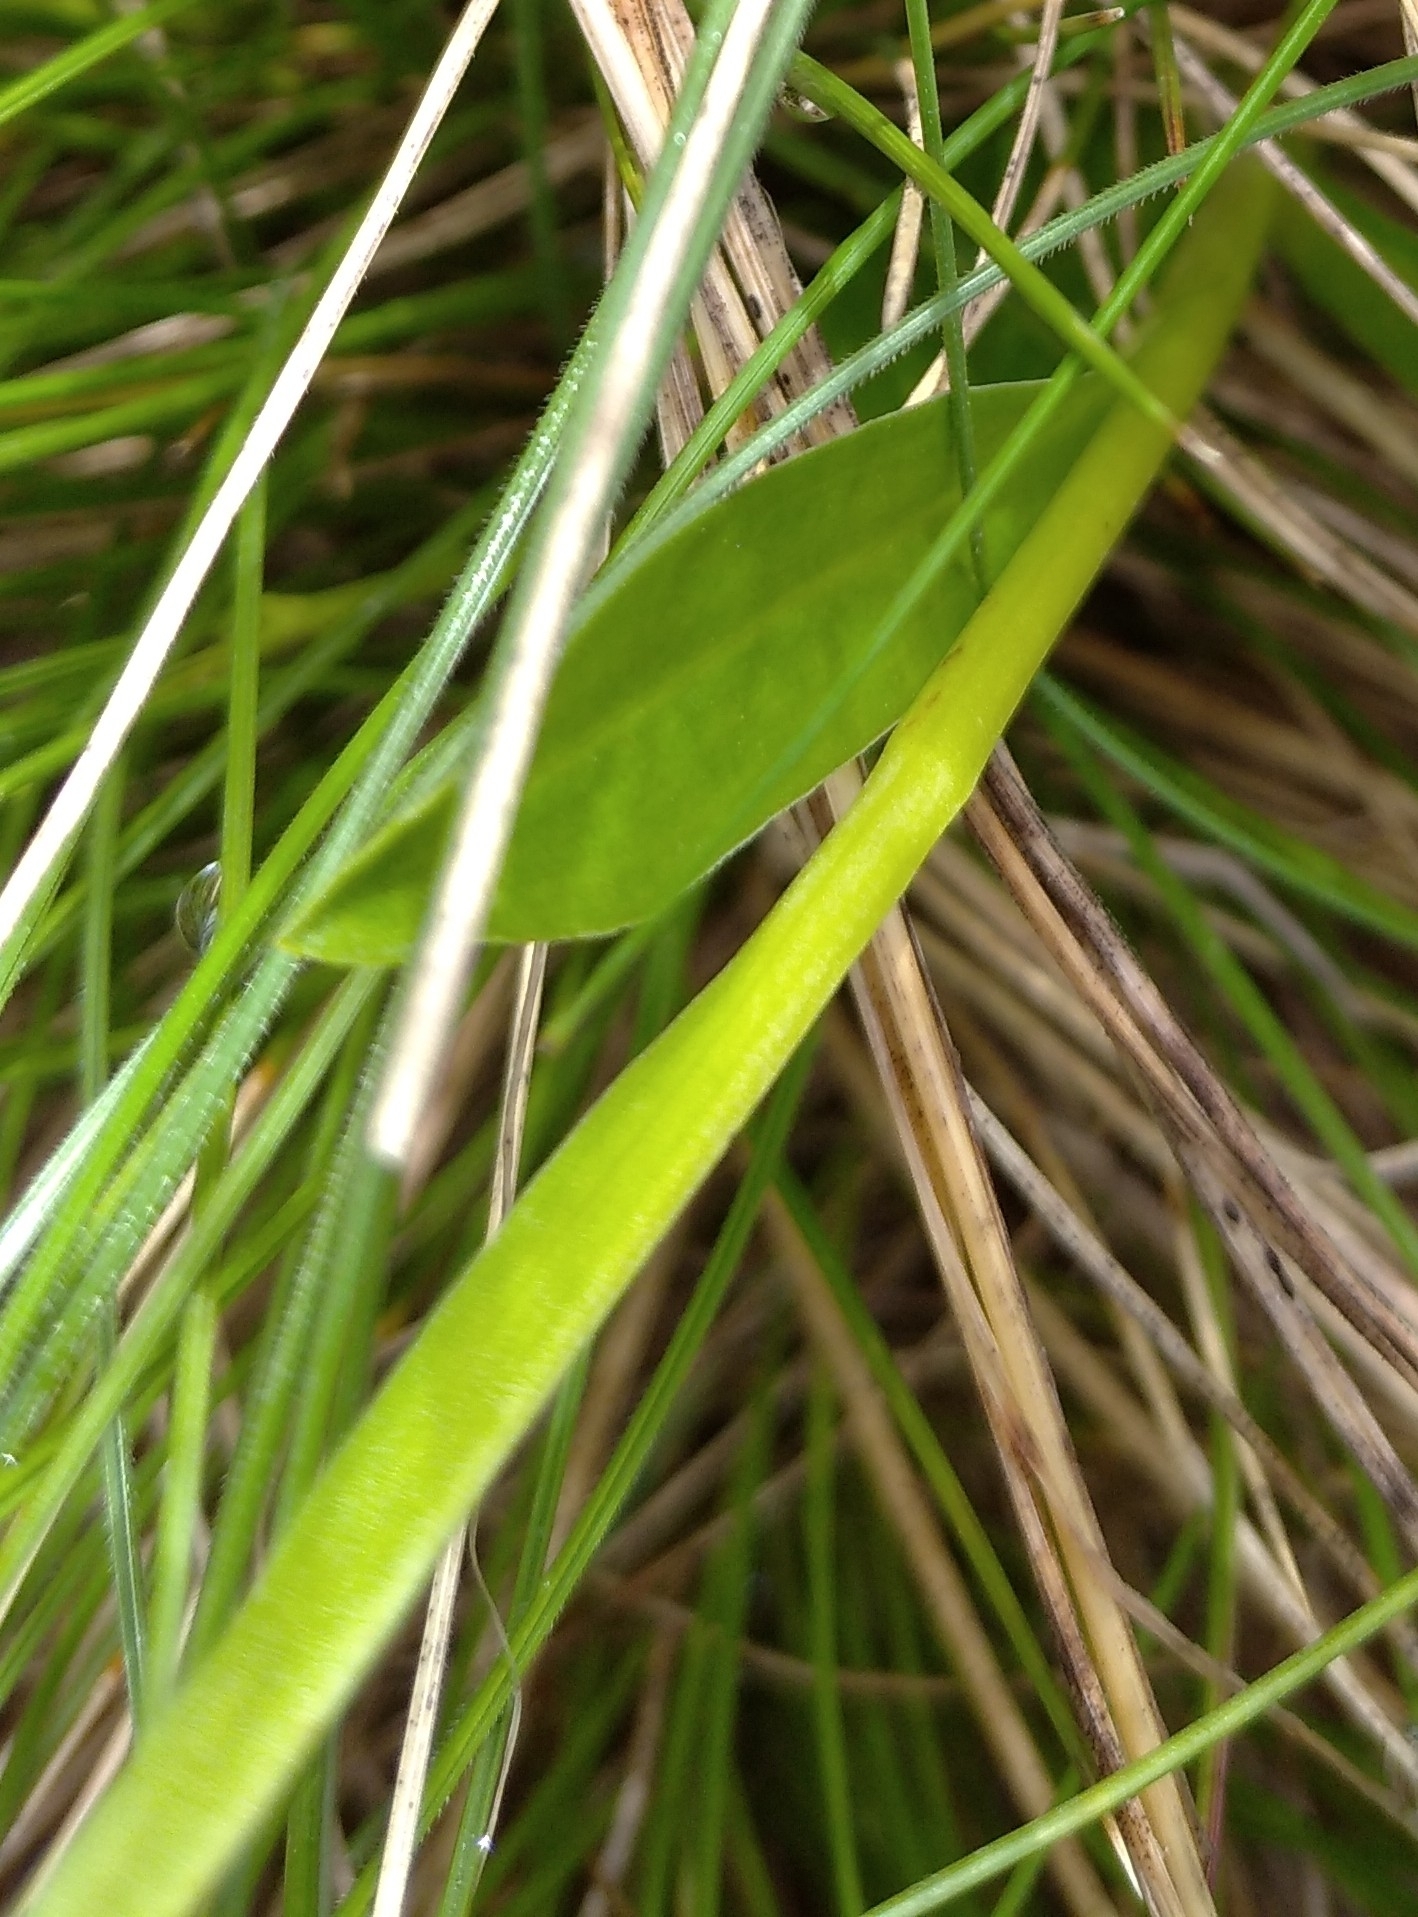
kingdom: Plantae
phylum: Tracheophyta
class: Liliopsida
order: Asparagales
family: Orchidaceae
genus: Pseudorchis
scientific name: Pseudorchis albida
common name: Small-white orchid
